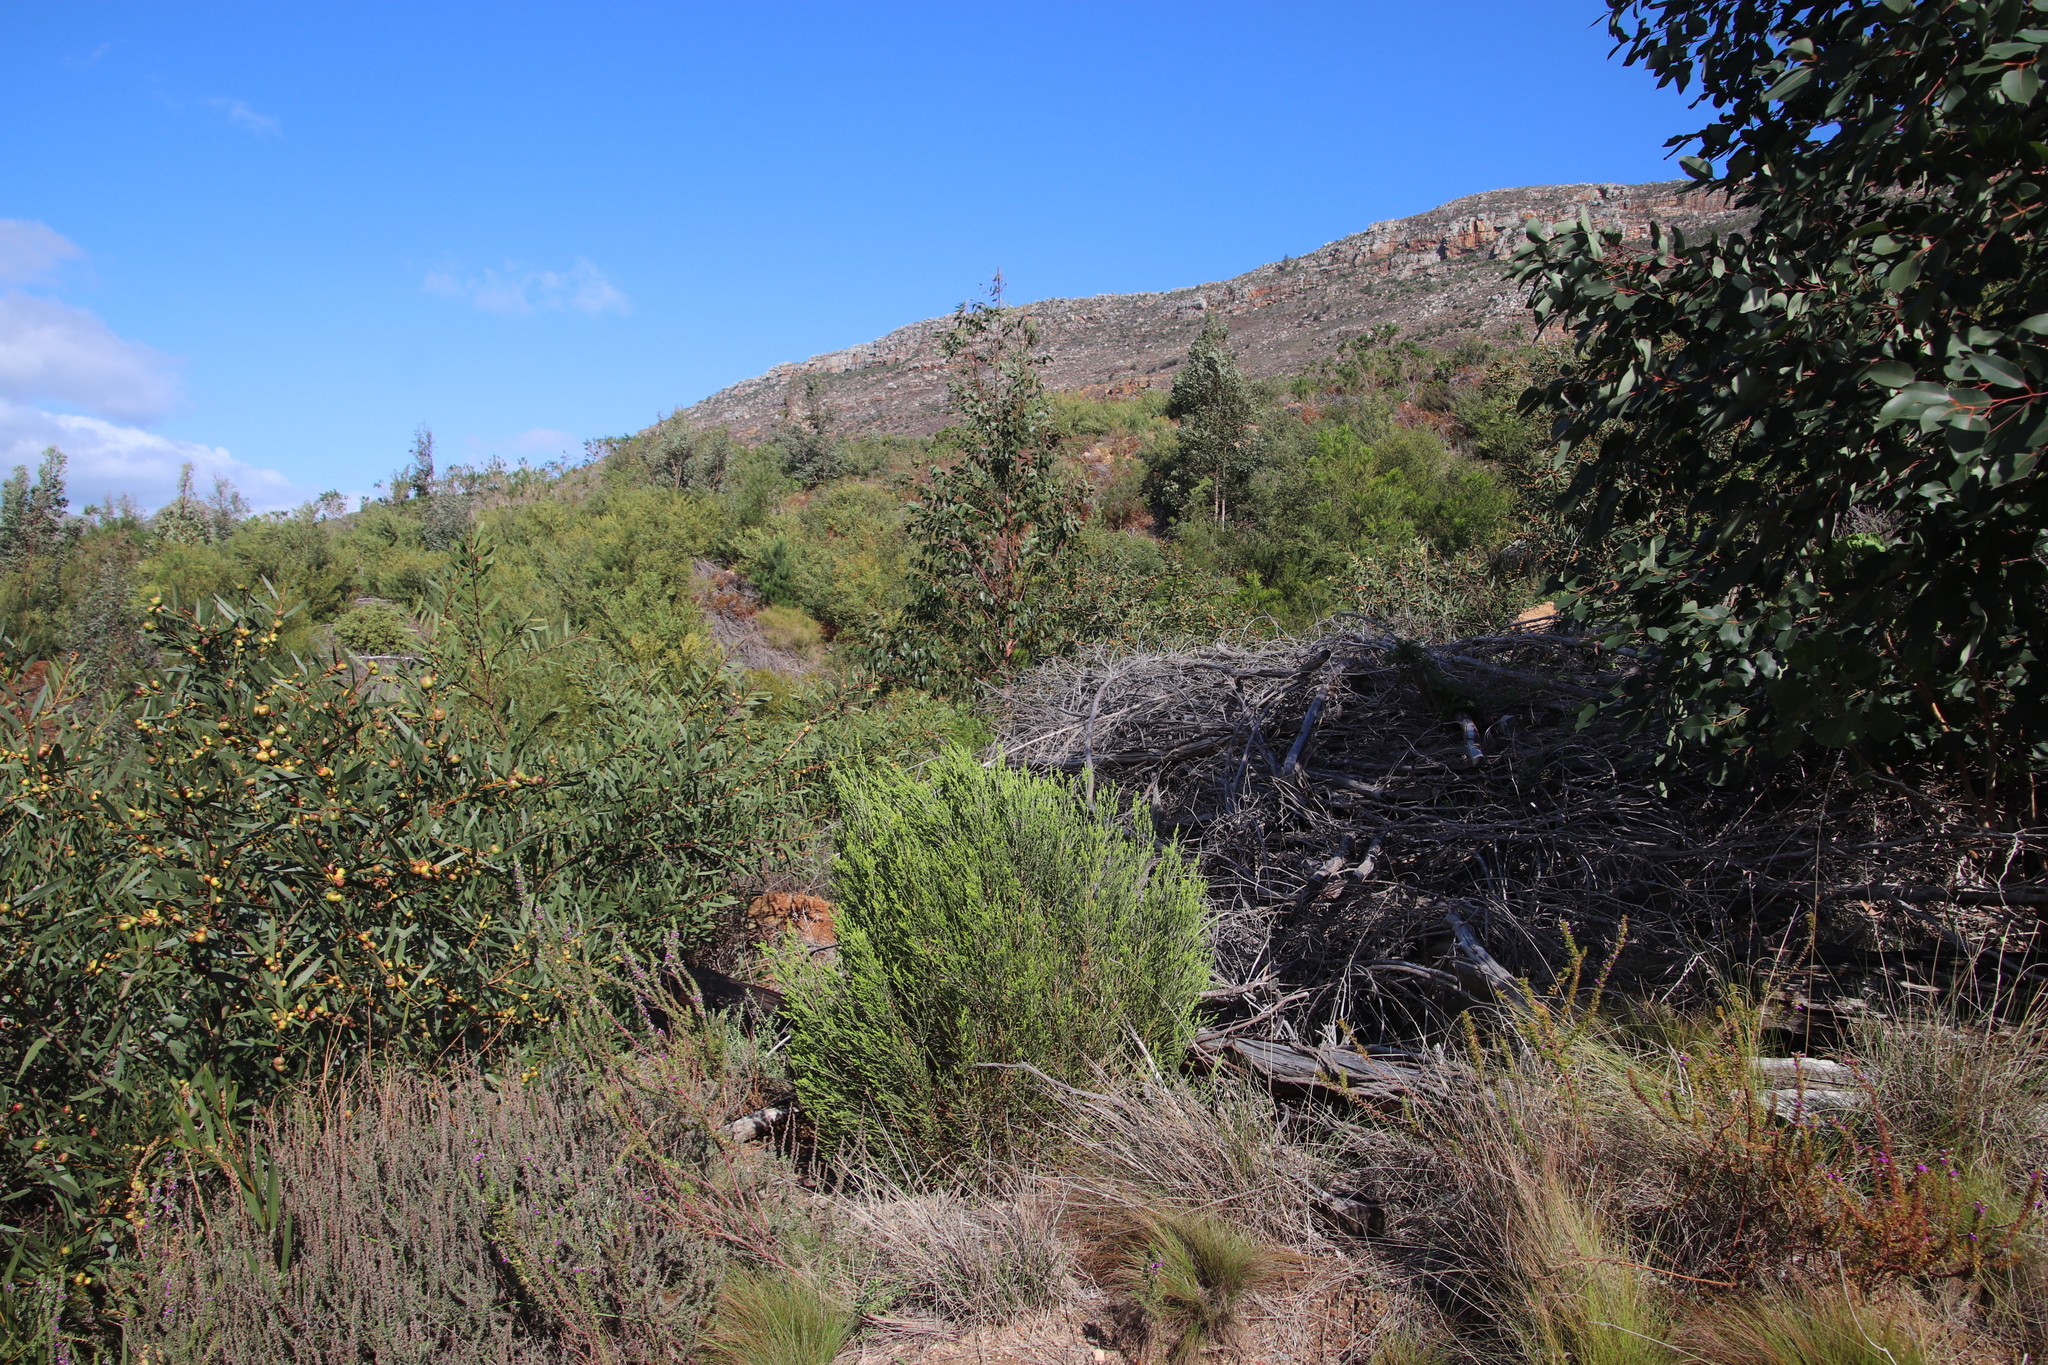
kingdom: Plantae
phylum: Tracheophyta
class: Magnoliopsida
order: Malvales
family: Thymelaeaceae
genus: Passerina
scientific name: Passerina corymbosa
